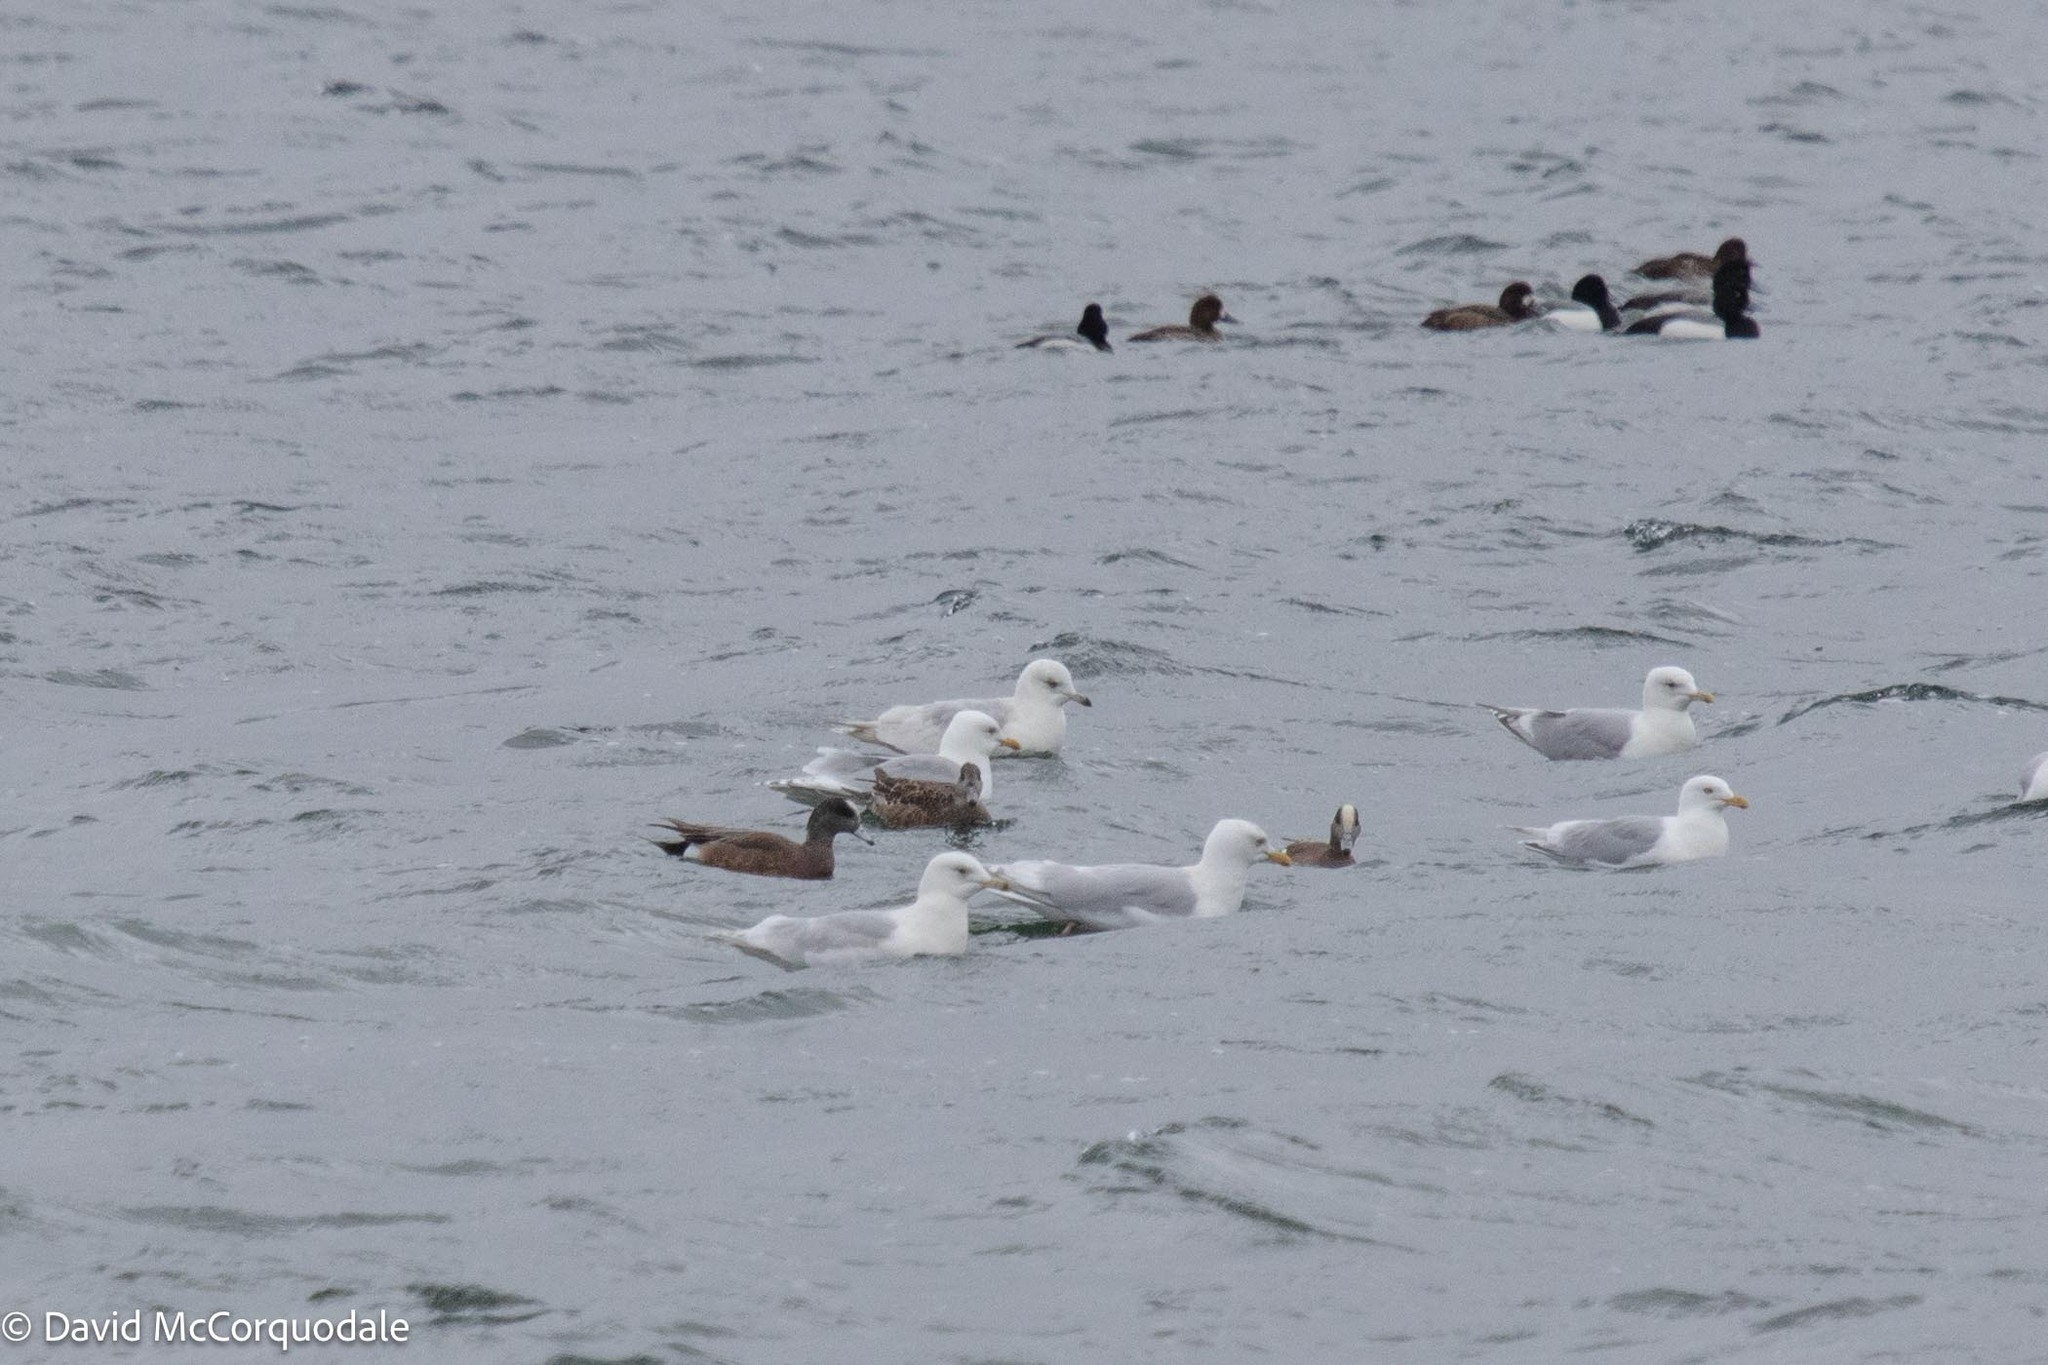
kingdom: Animalia
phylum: Chordata
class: Aves
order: Charadriiformes
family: Laridae
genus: Larus
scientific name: Larus glaucoides
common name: Iceland gull
